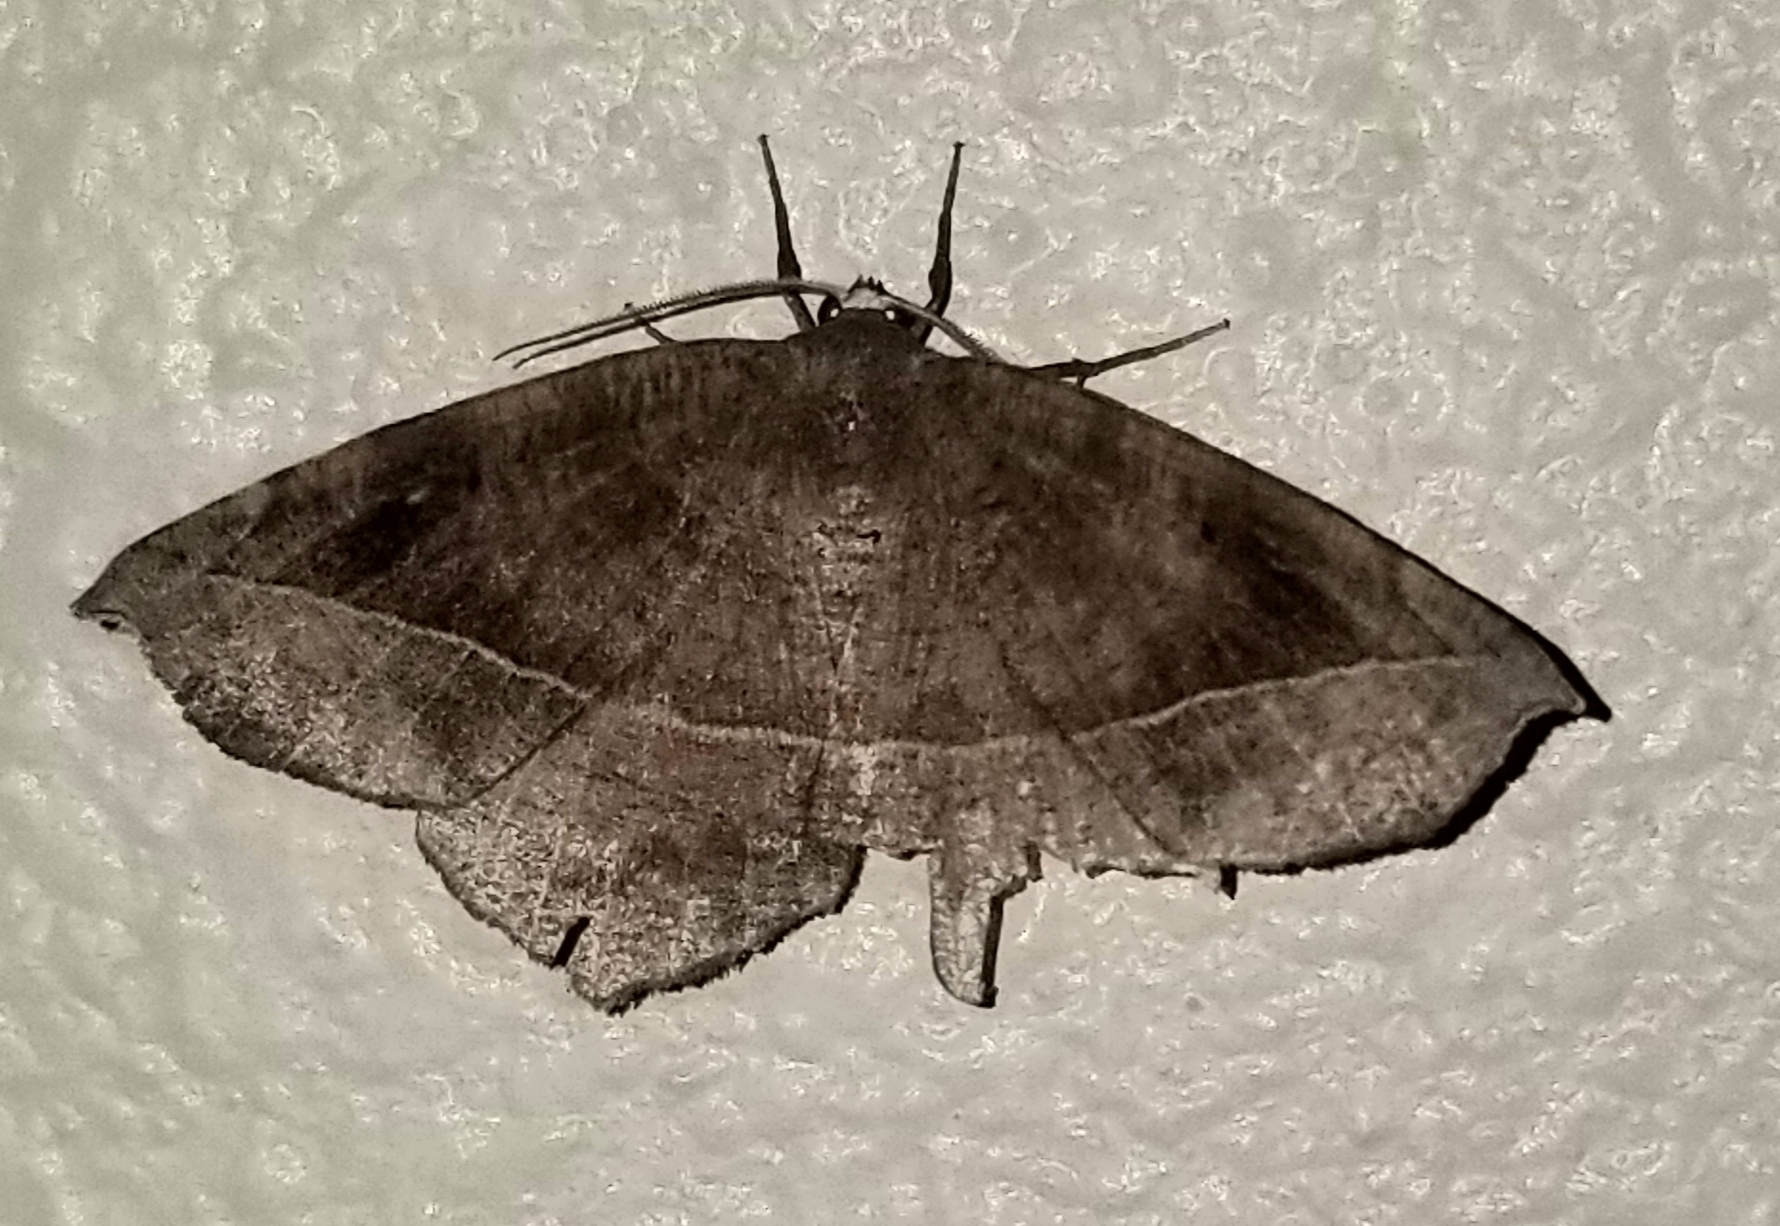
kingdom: Animalia
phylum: Arthropoda
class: Insecta
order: Lepidoptera
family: Geometridae
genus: Eutrapela
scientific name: Eutrapela clemataria
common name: Curved-toothed geometer
